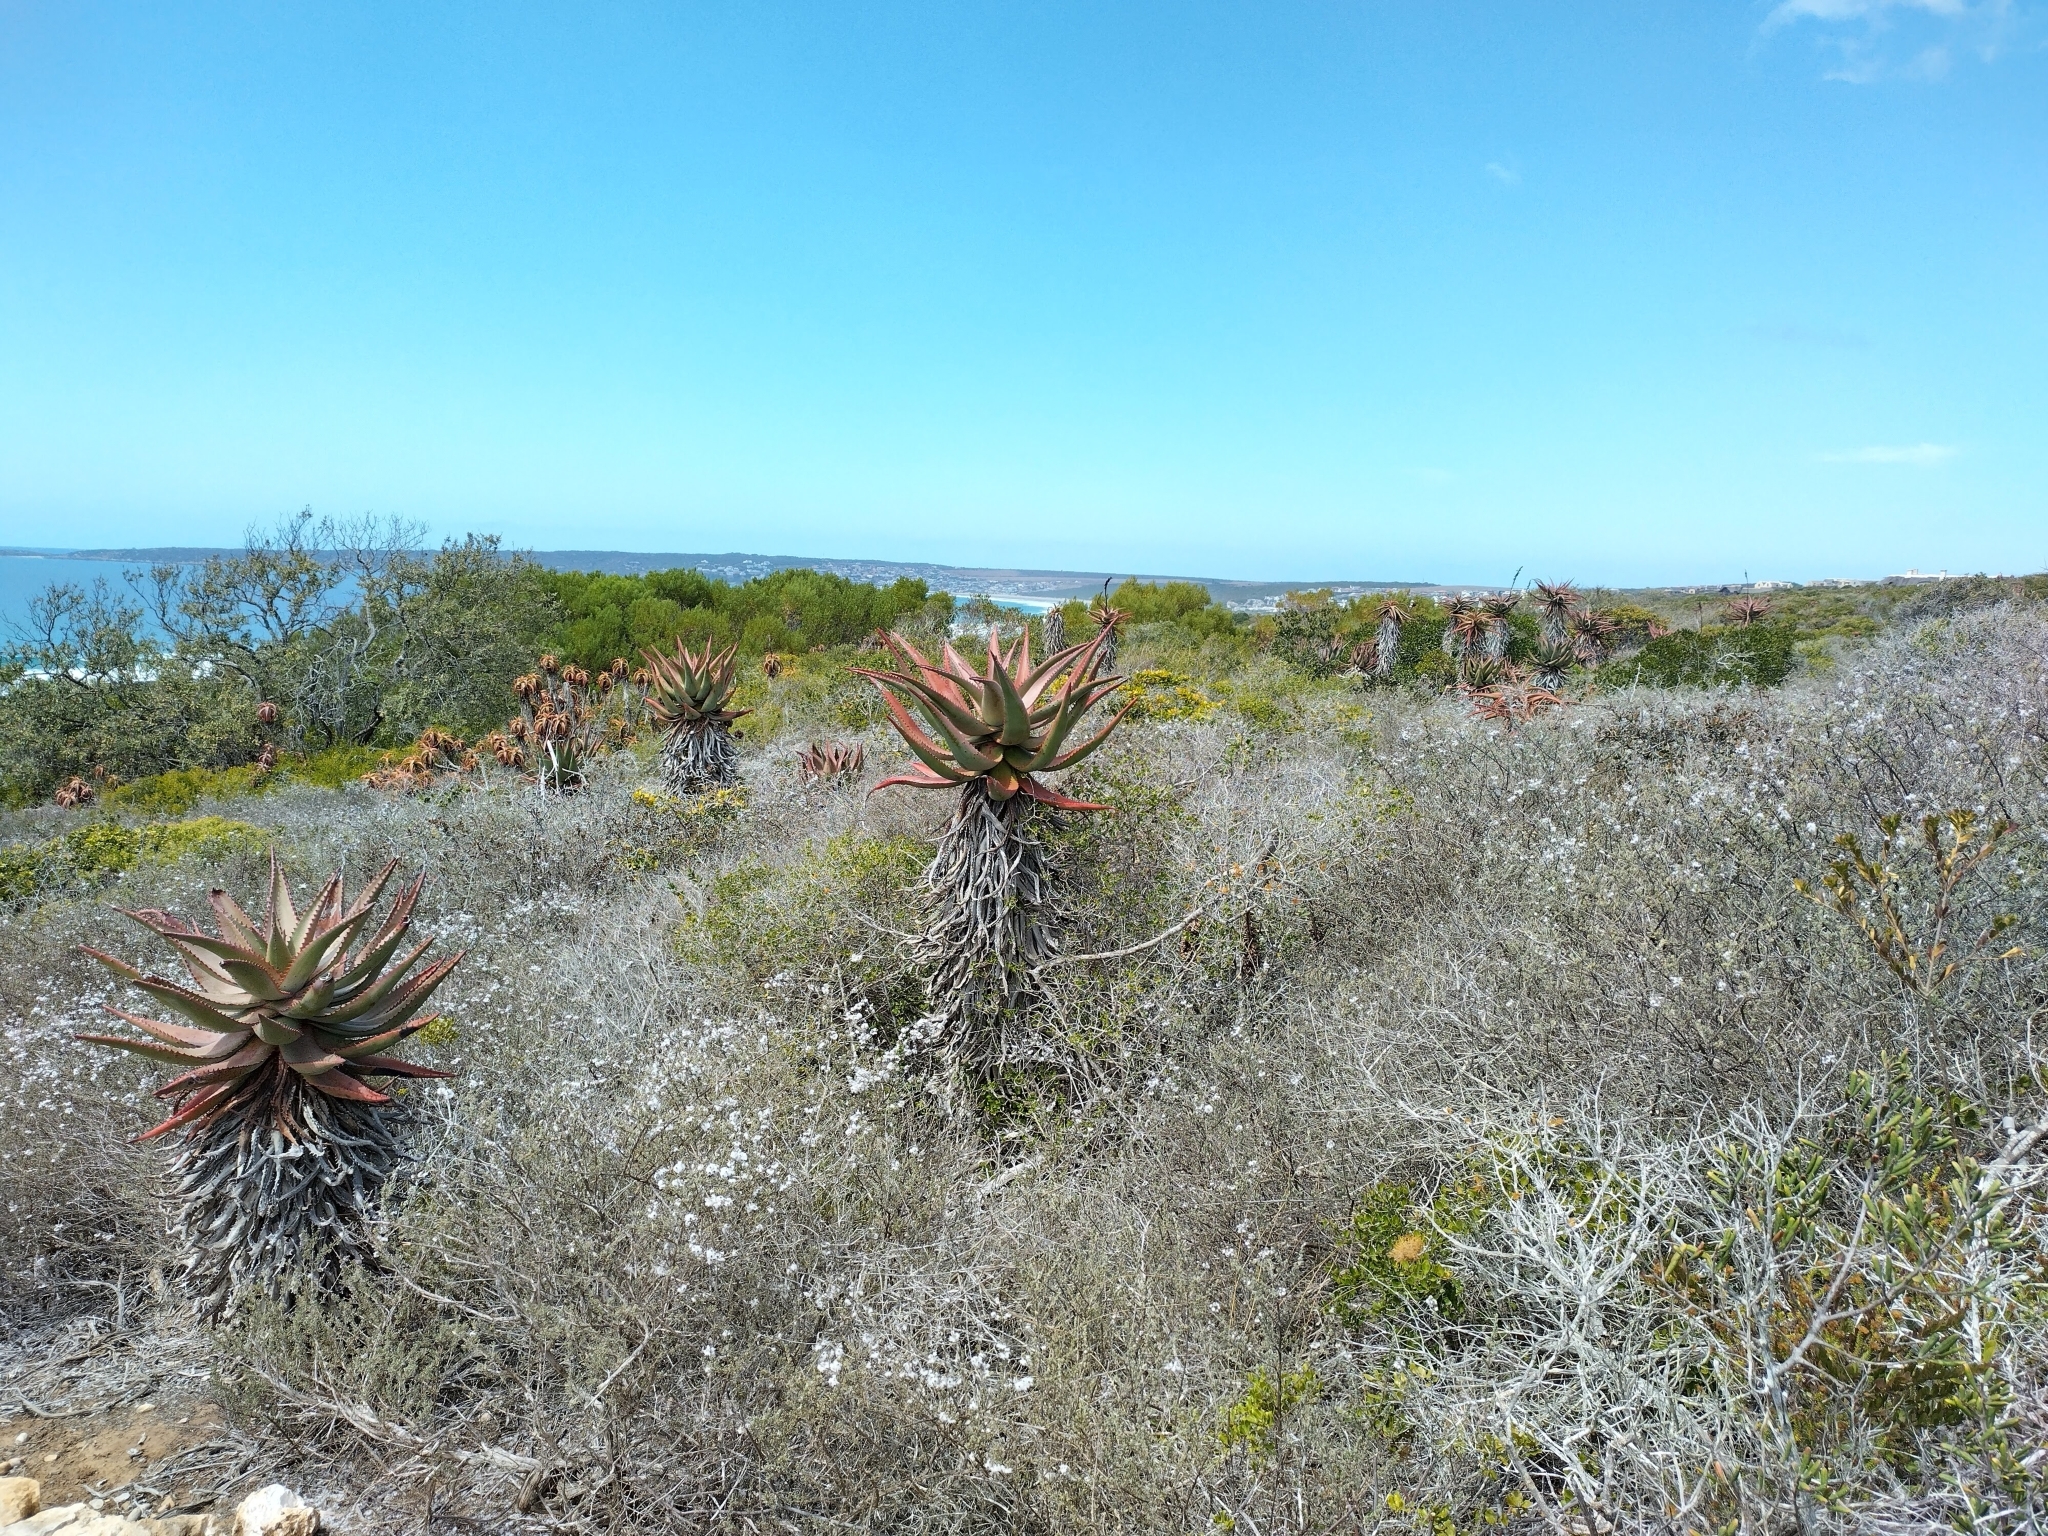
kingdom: Plantae
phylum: Tracheophyta
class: Liliopsida
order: Asparagales
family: Asphodelaceae
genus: Aloe
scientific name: Aloe ferox
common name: Bitter aloe
